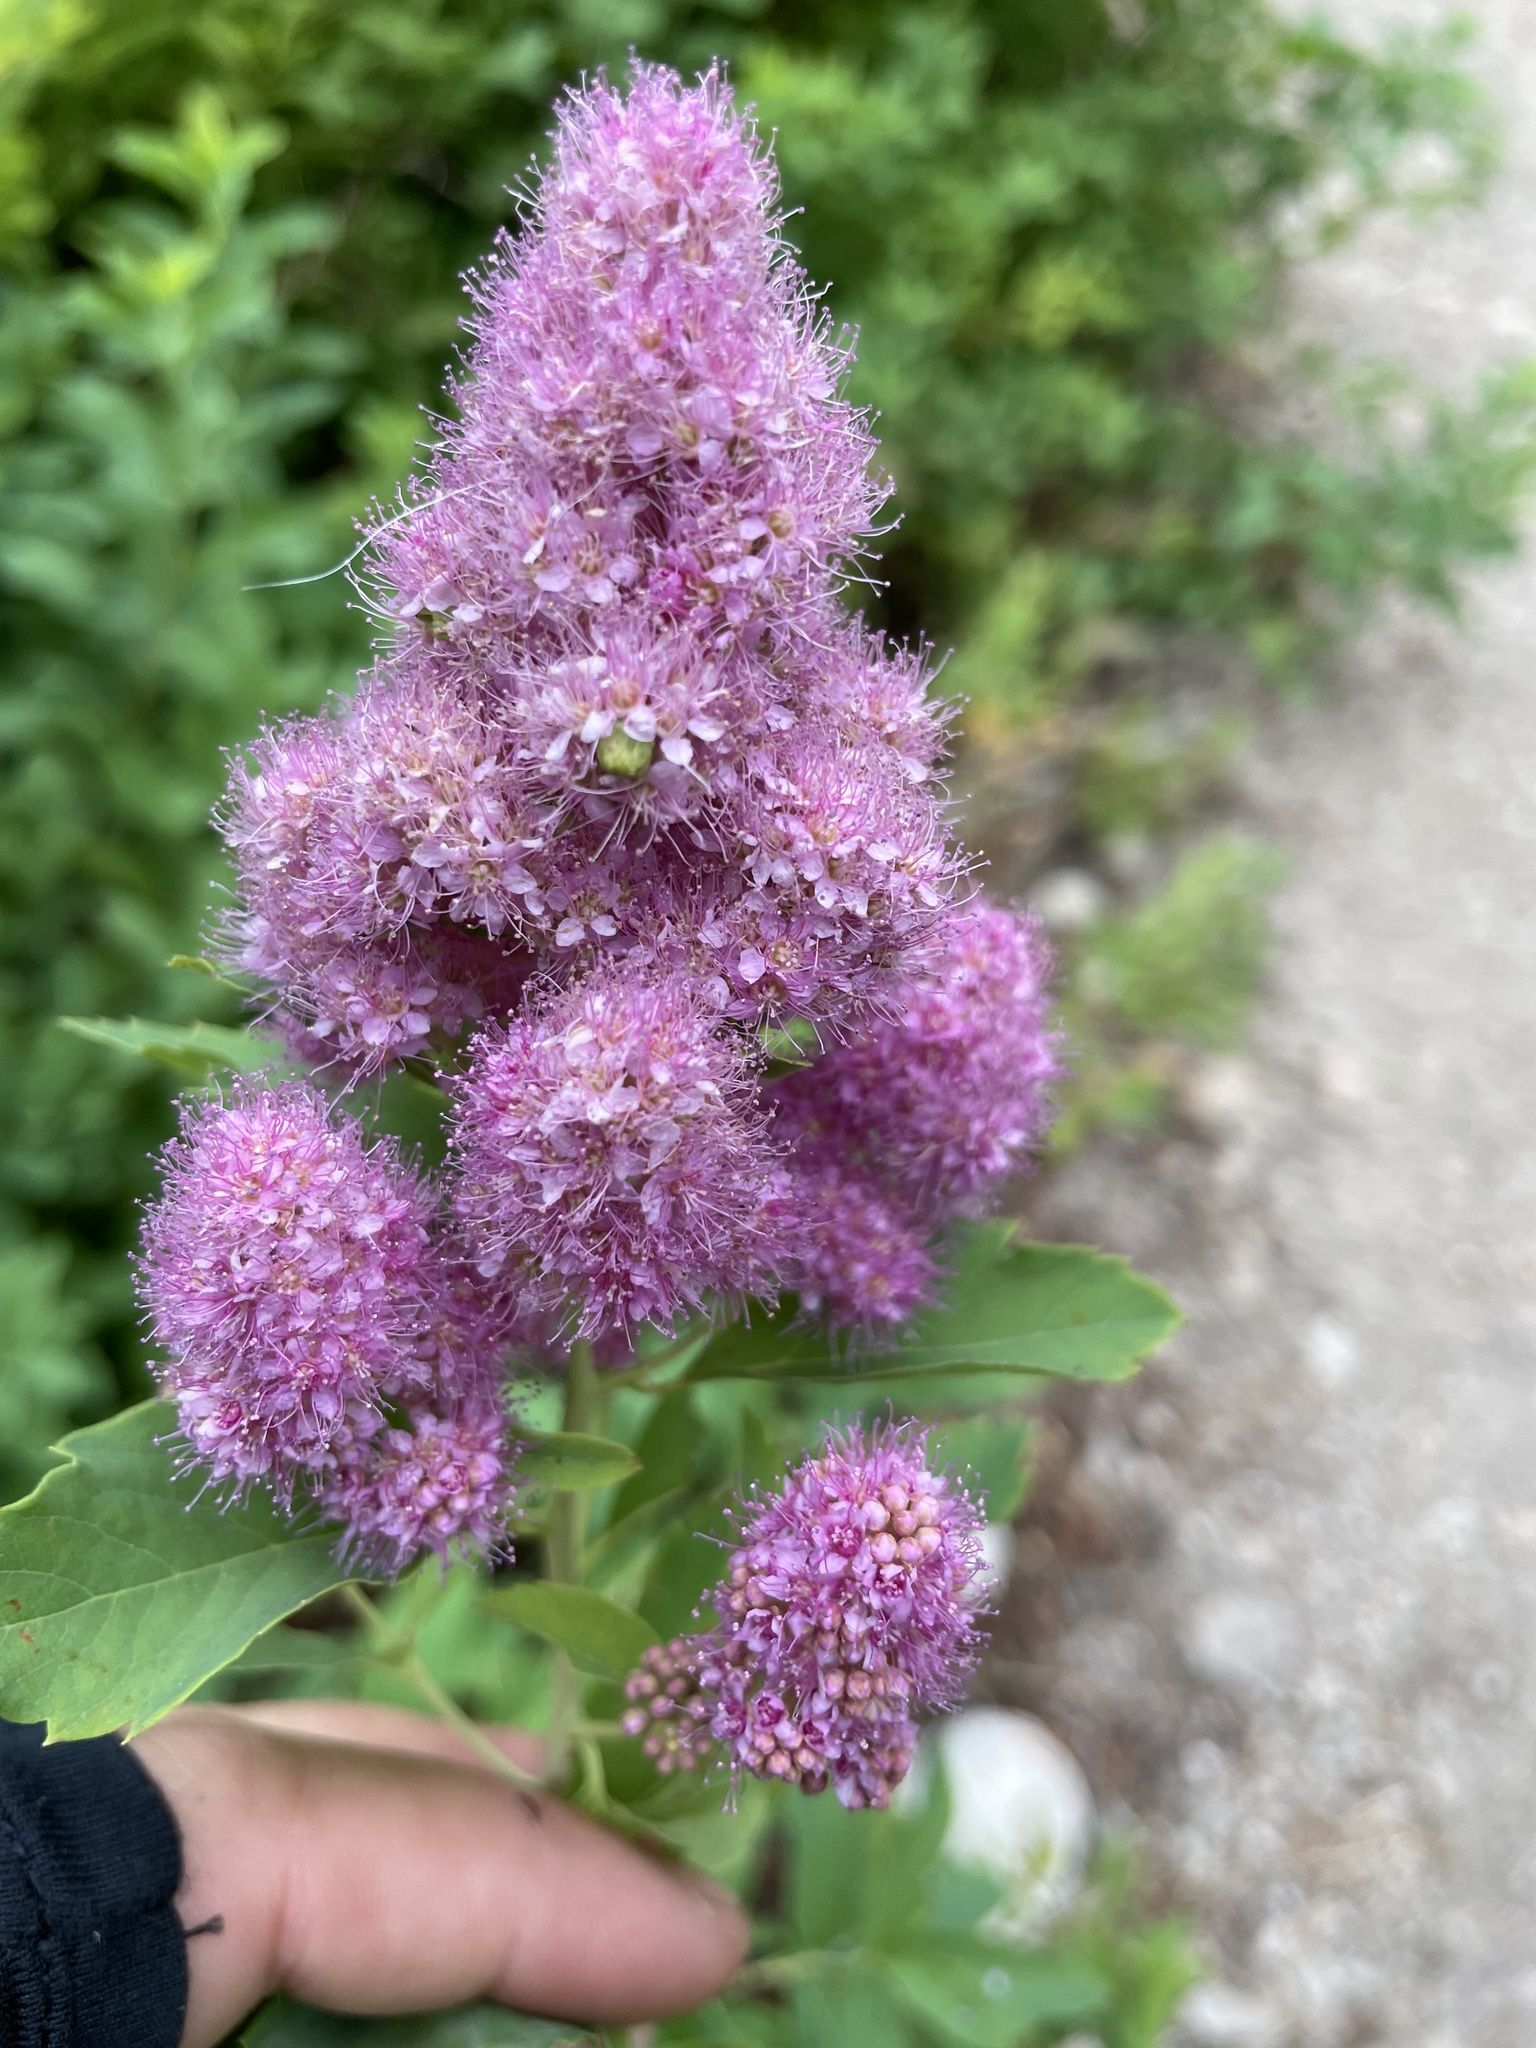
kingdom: Plantae
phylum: Tracheophyta
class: Magnoliopsida
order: Rosales
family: Rosaceae
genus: Spiraea
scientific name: Spiraea douglasii
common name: Steeplebush
